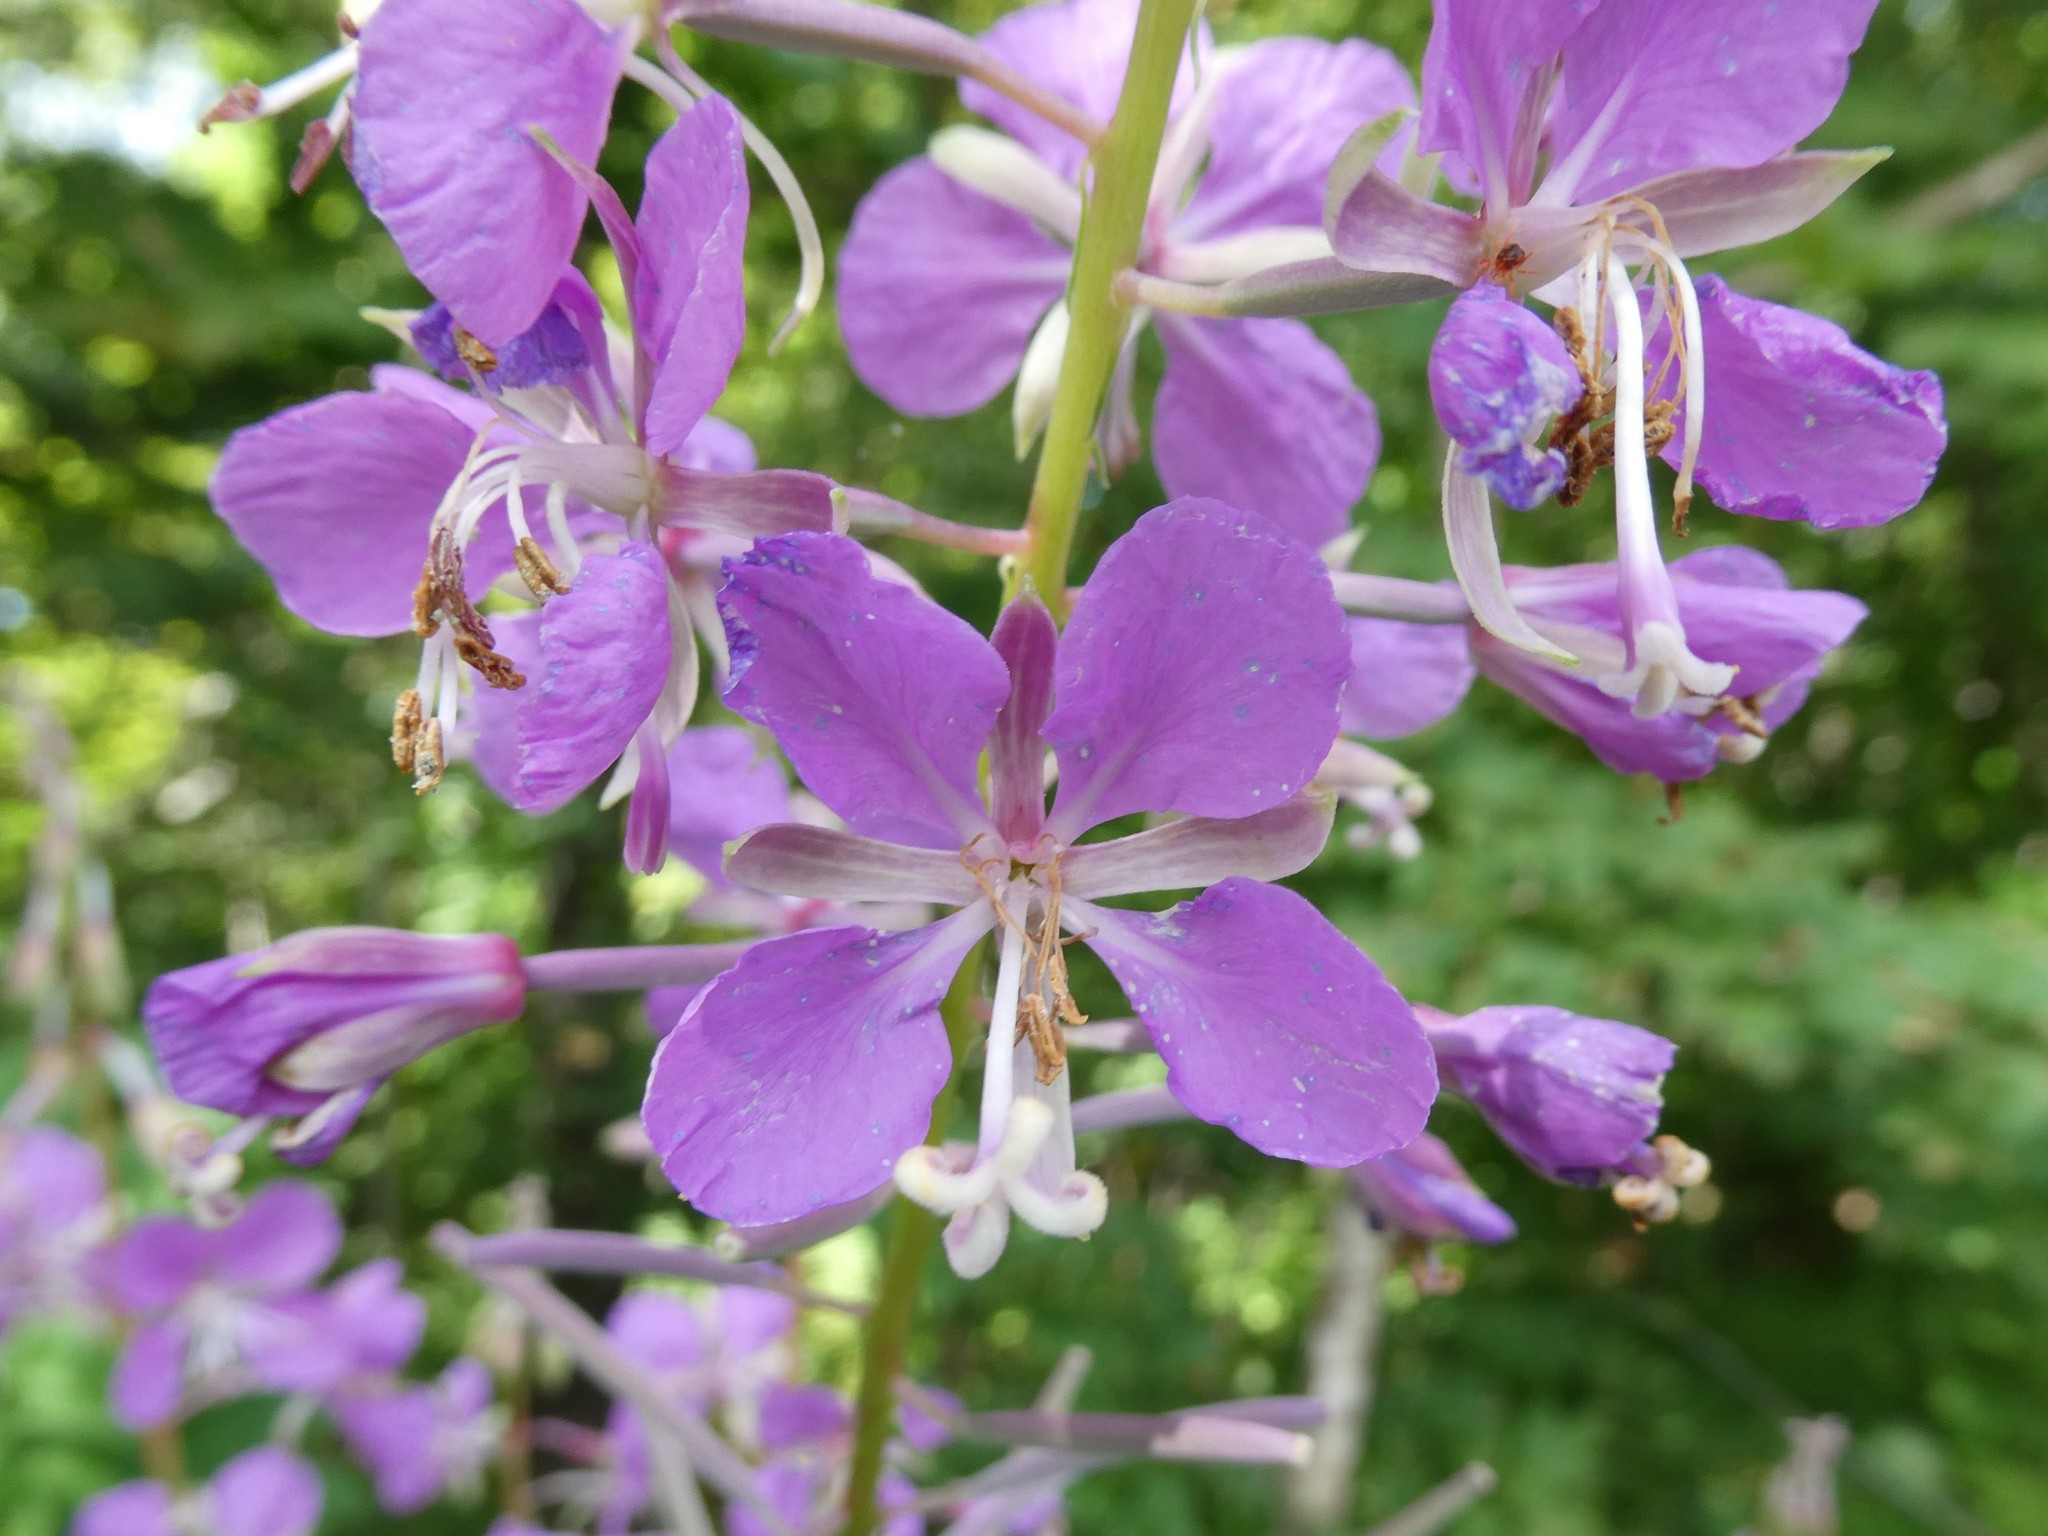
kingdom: Plantae
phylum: Tracheophyta
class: Magnoliopsida
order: Myrtales
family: Onagraceae
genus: Chamaenerion
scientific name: Chamaenerion angustifolium
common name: Fireweed
